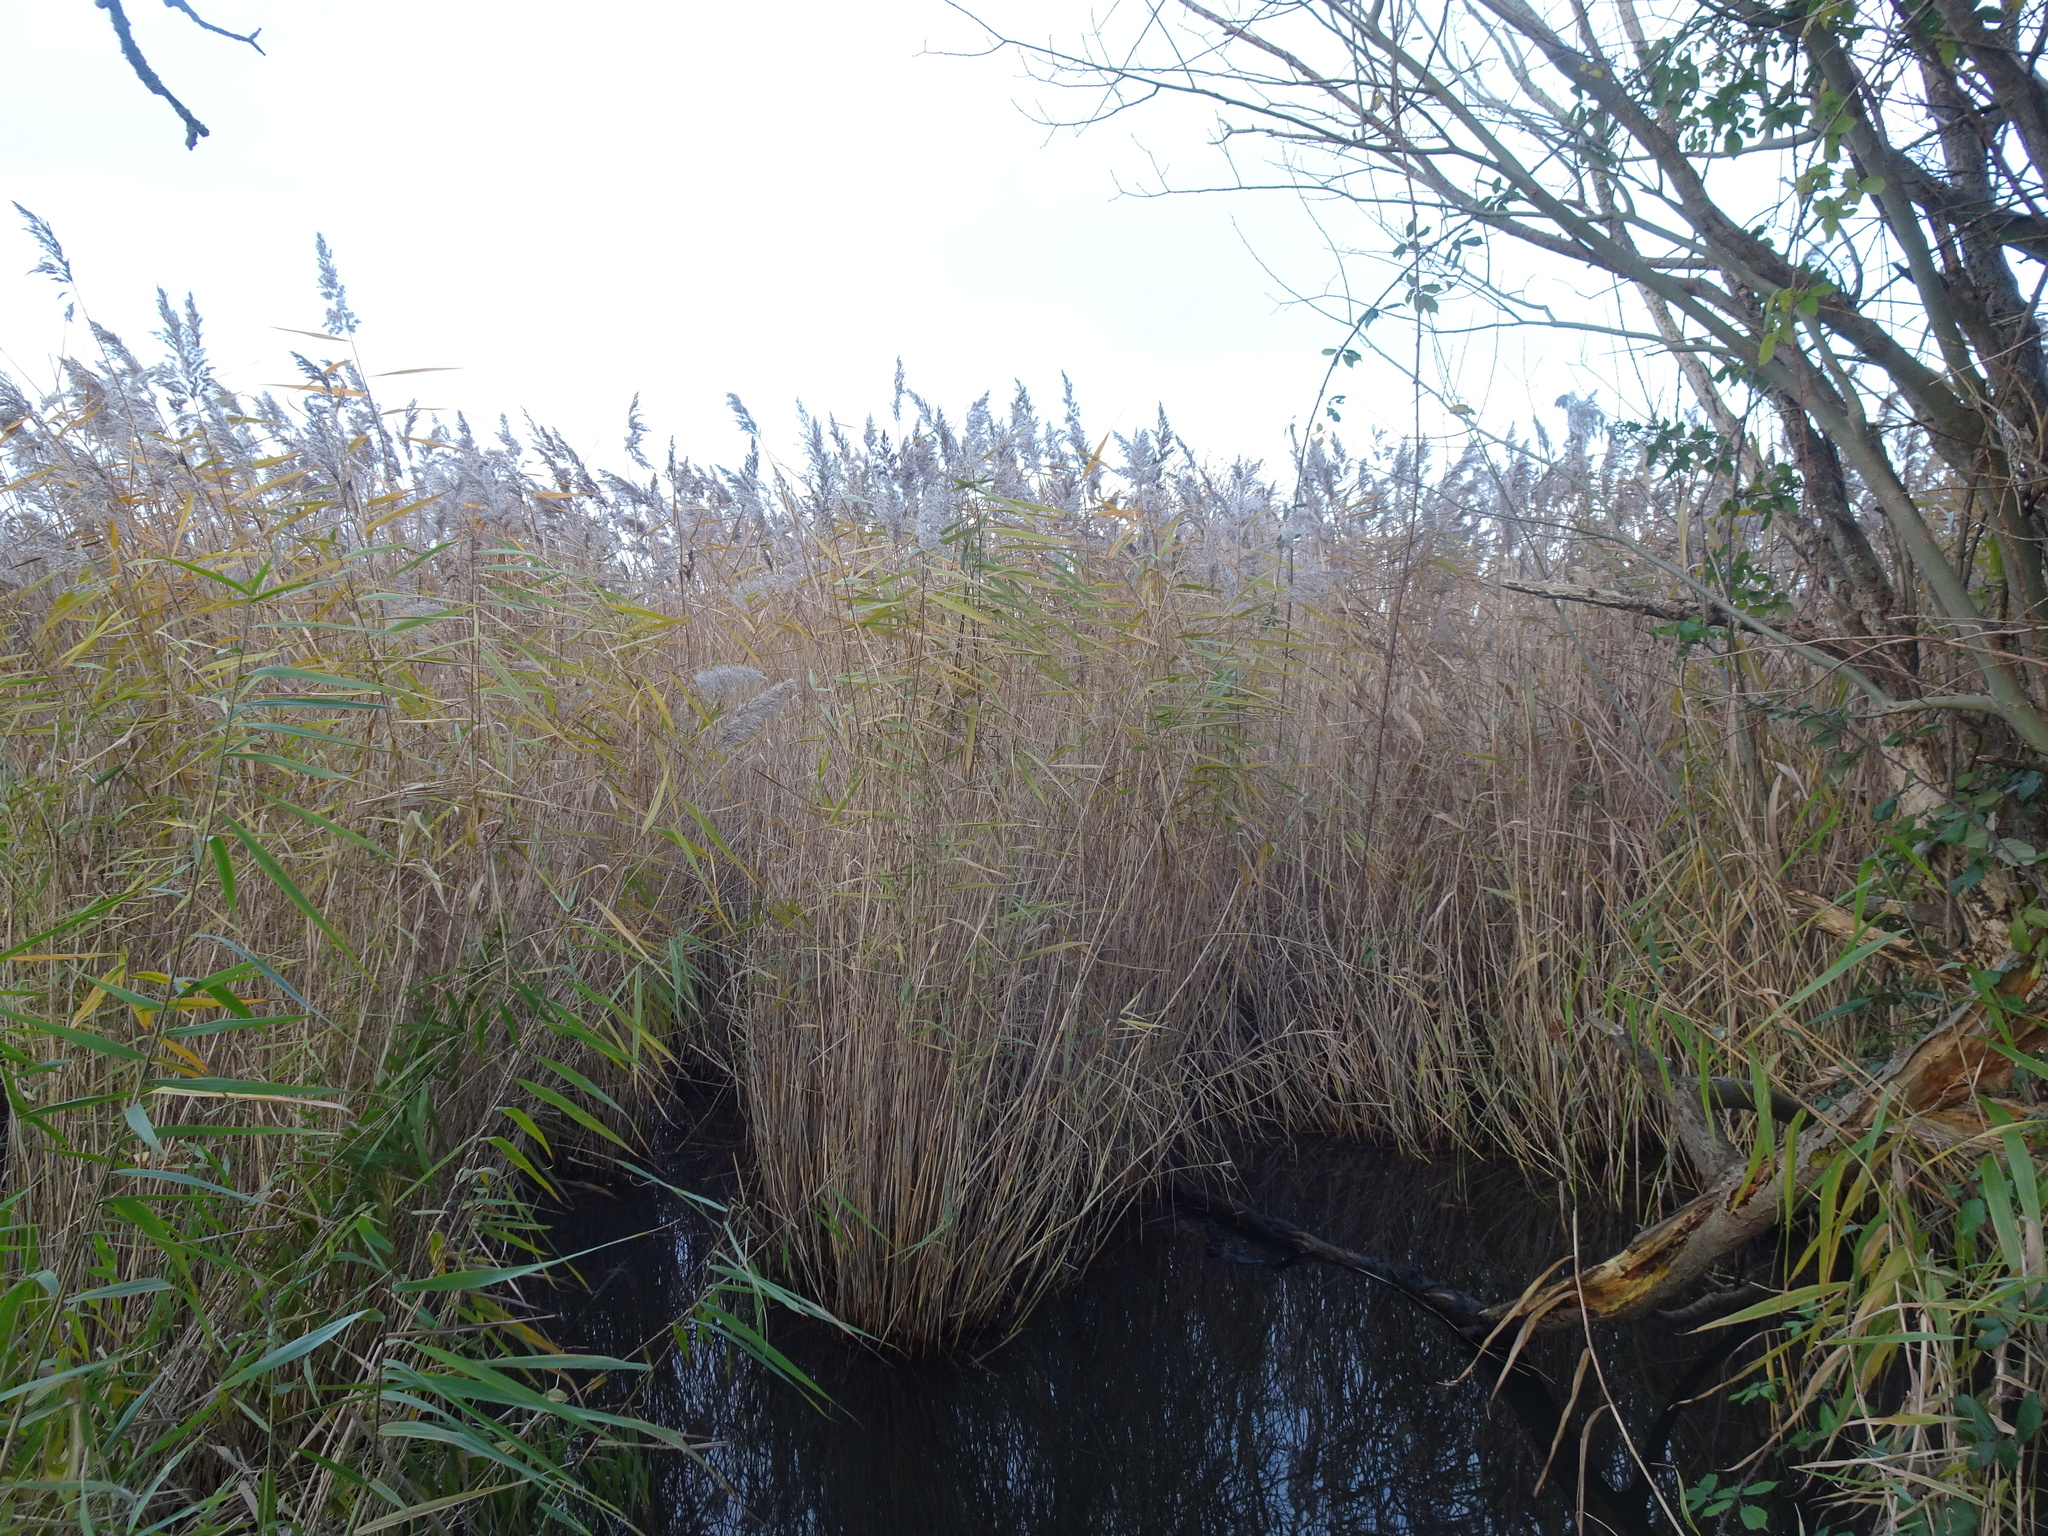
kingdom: Plantae
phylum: Tracheophyta
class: Liliopsida
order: Poales
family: Poaceae
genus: Phragmites
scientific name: Phragmites australis
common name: Common reed
